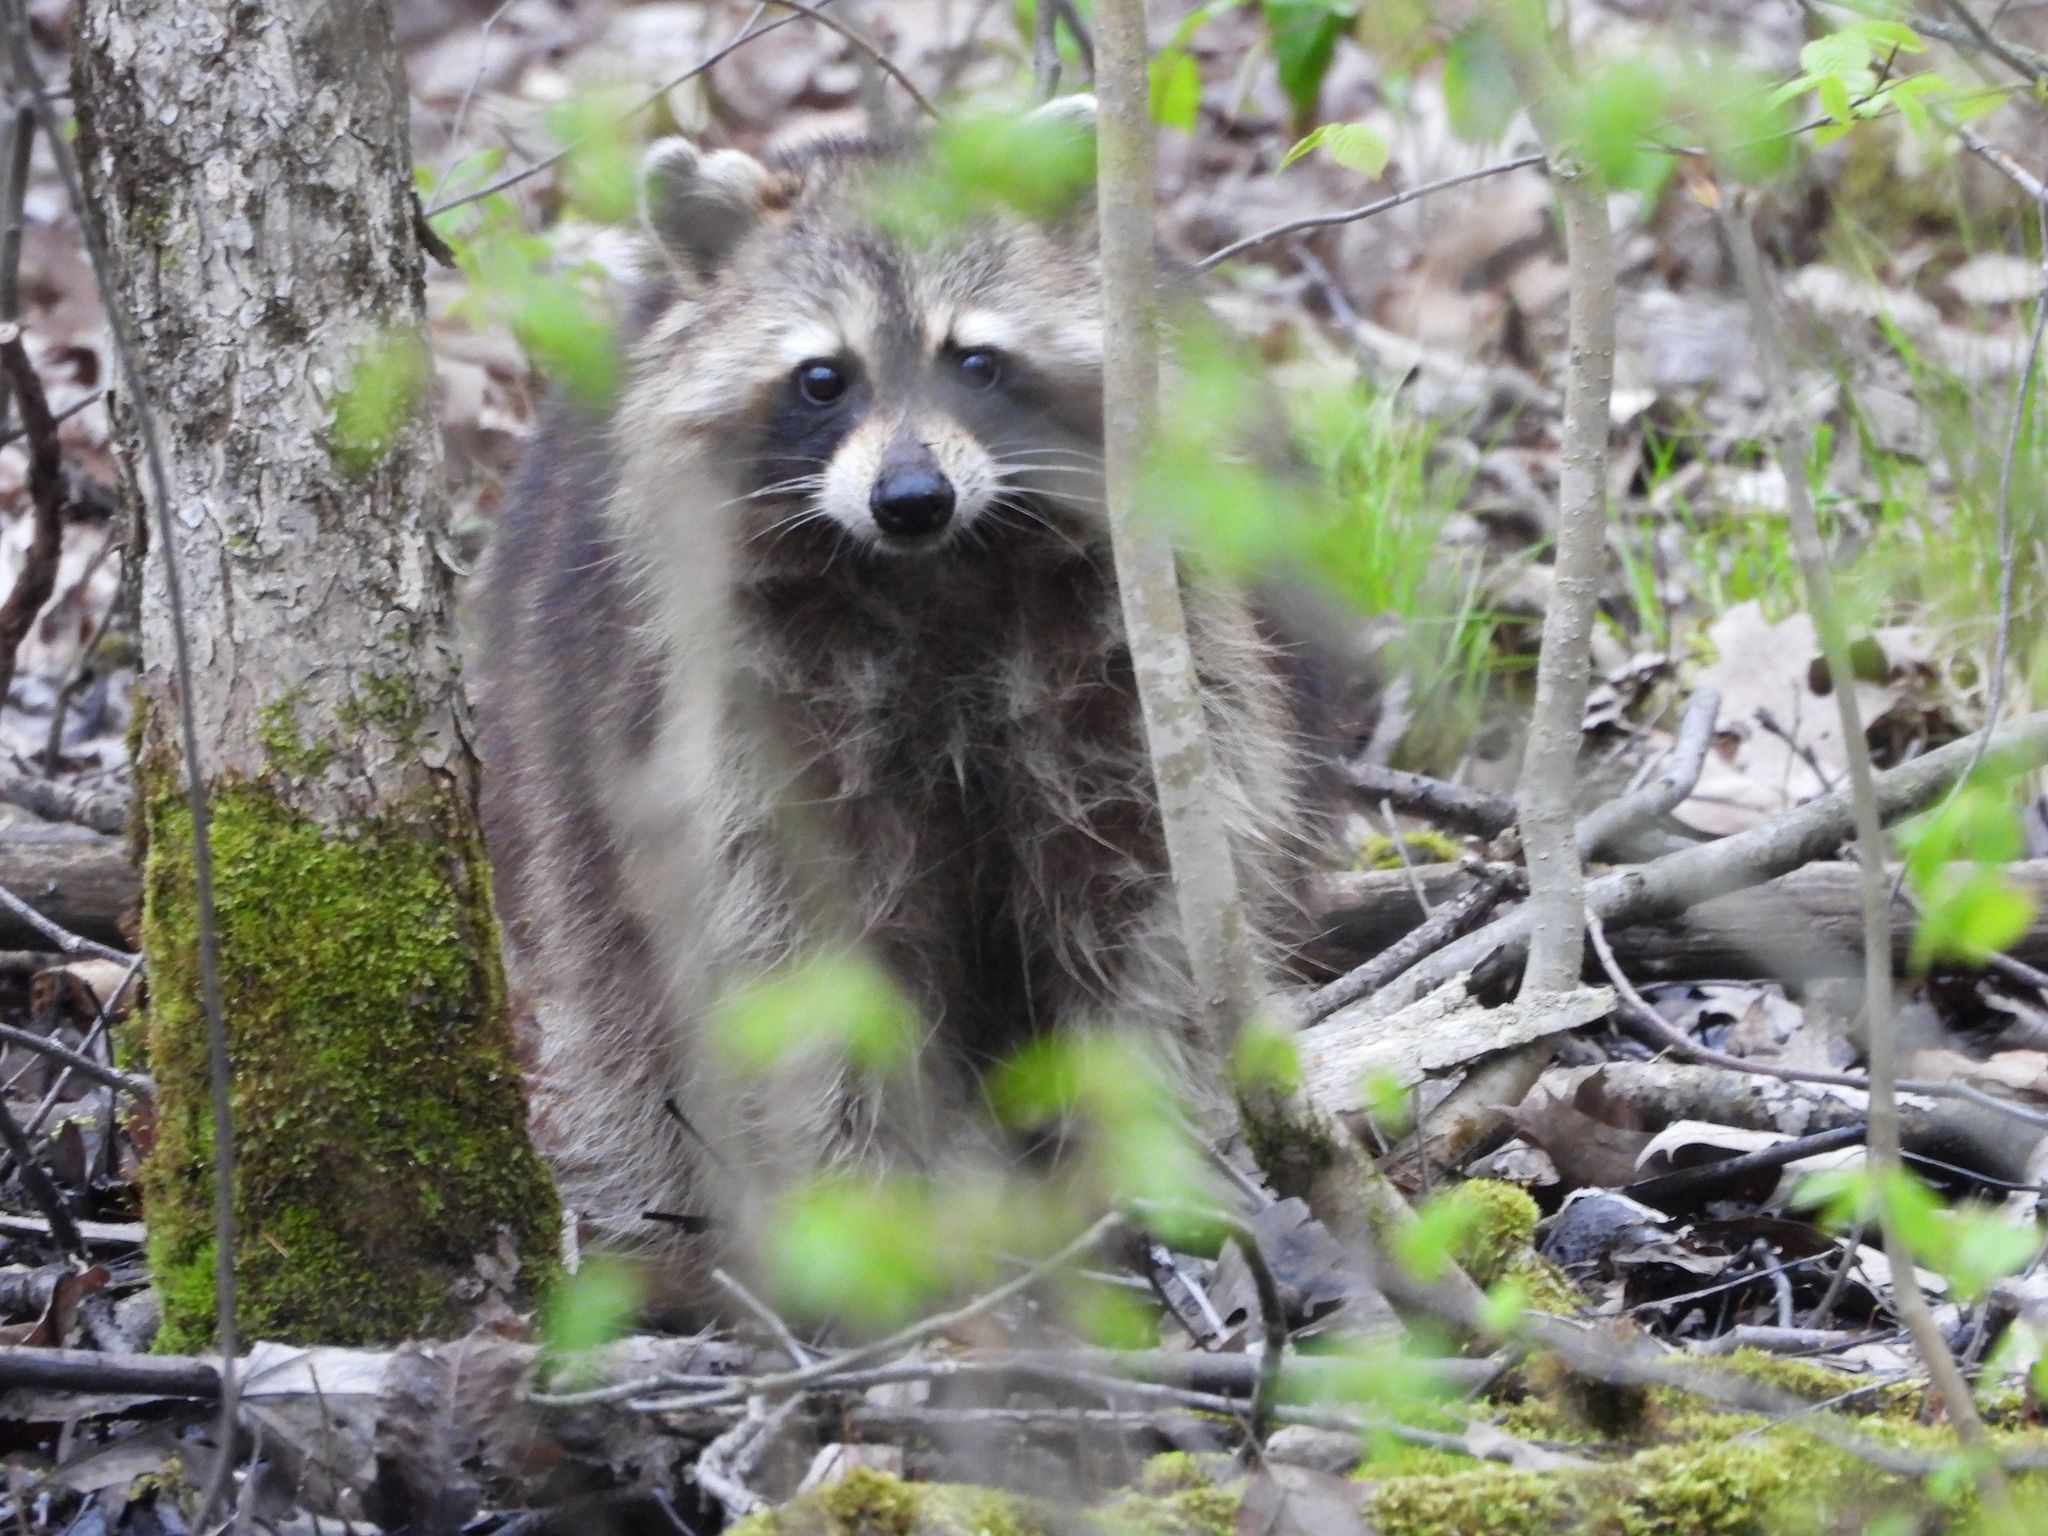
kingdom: Animalia
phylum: Chordata
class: Mammalia
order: Carnivora
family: Procyonidae
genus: Procyon
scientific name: Procyon lotor
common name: Raccoon
